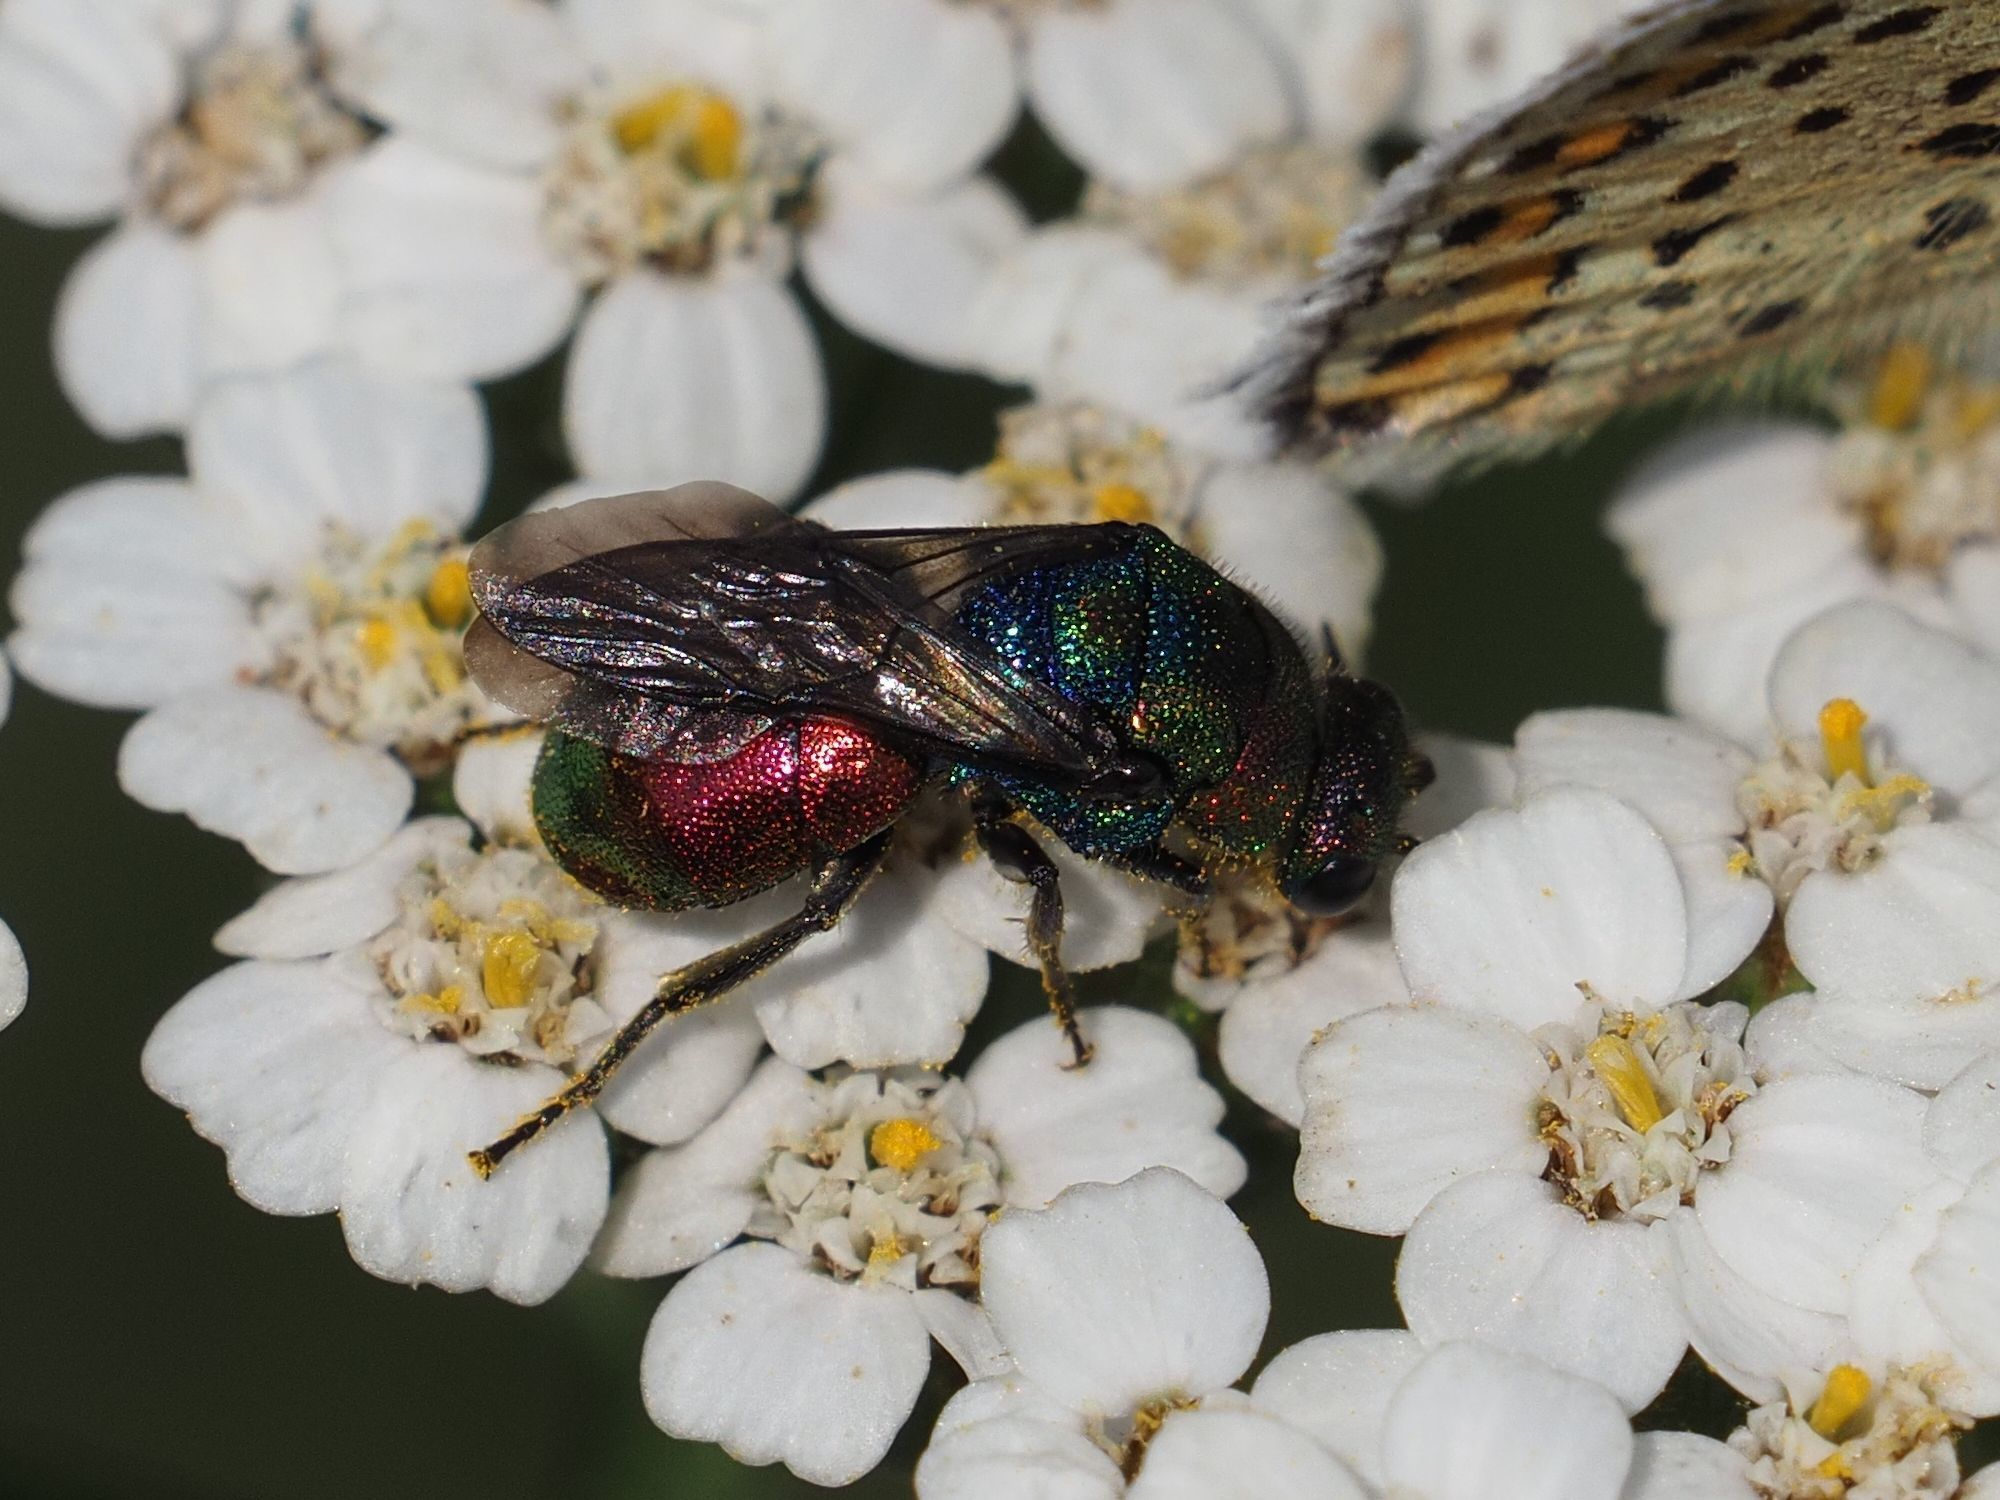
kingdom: Animalia
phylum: Arthropoda
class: Insecta
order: Hymenoptera
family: Chrysididae
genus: Hedychrum
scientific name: Hedychrum rutilans
